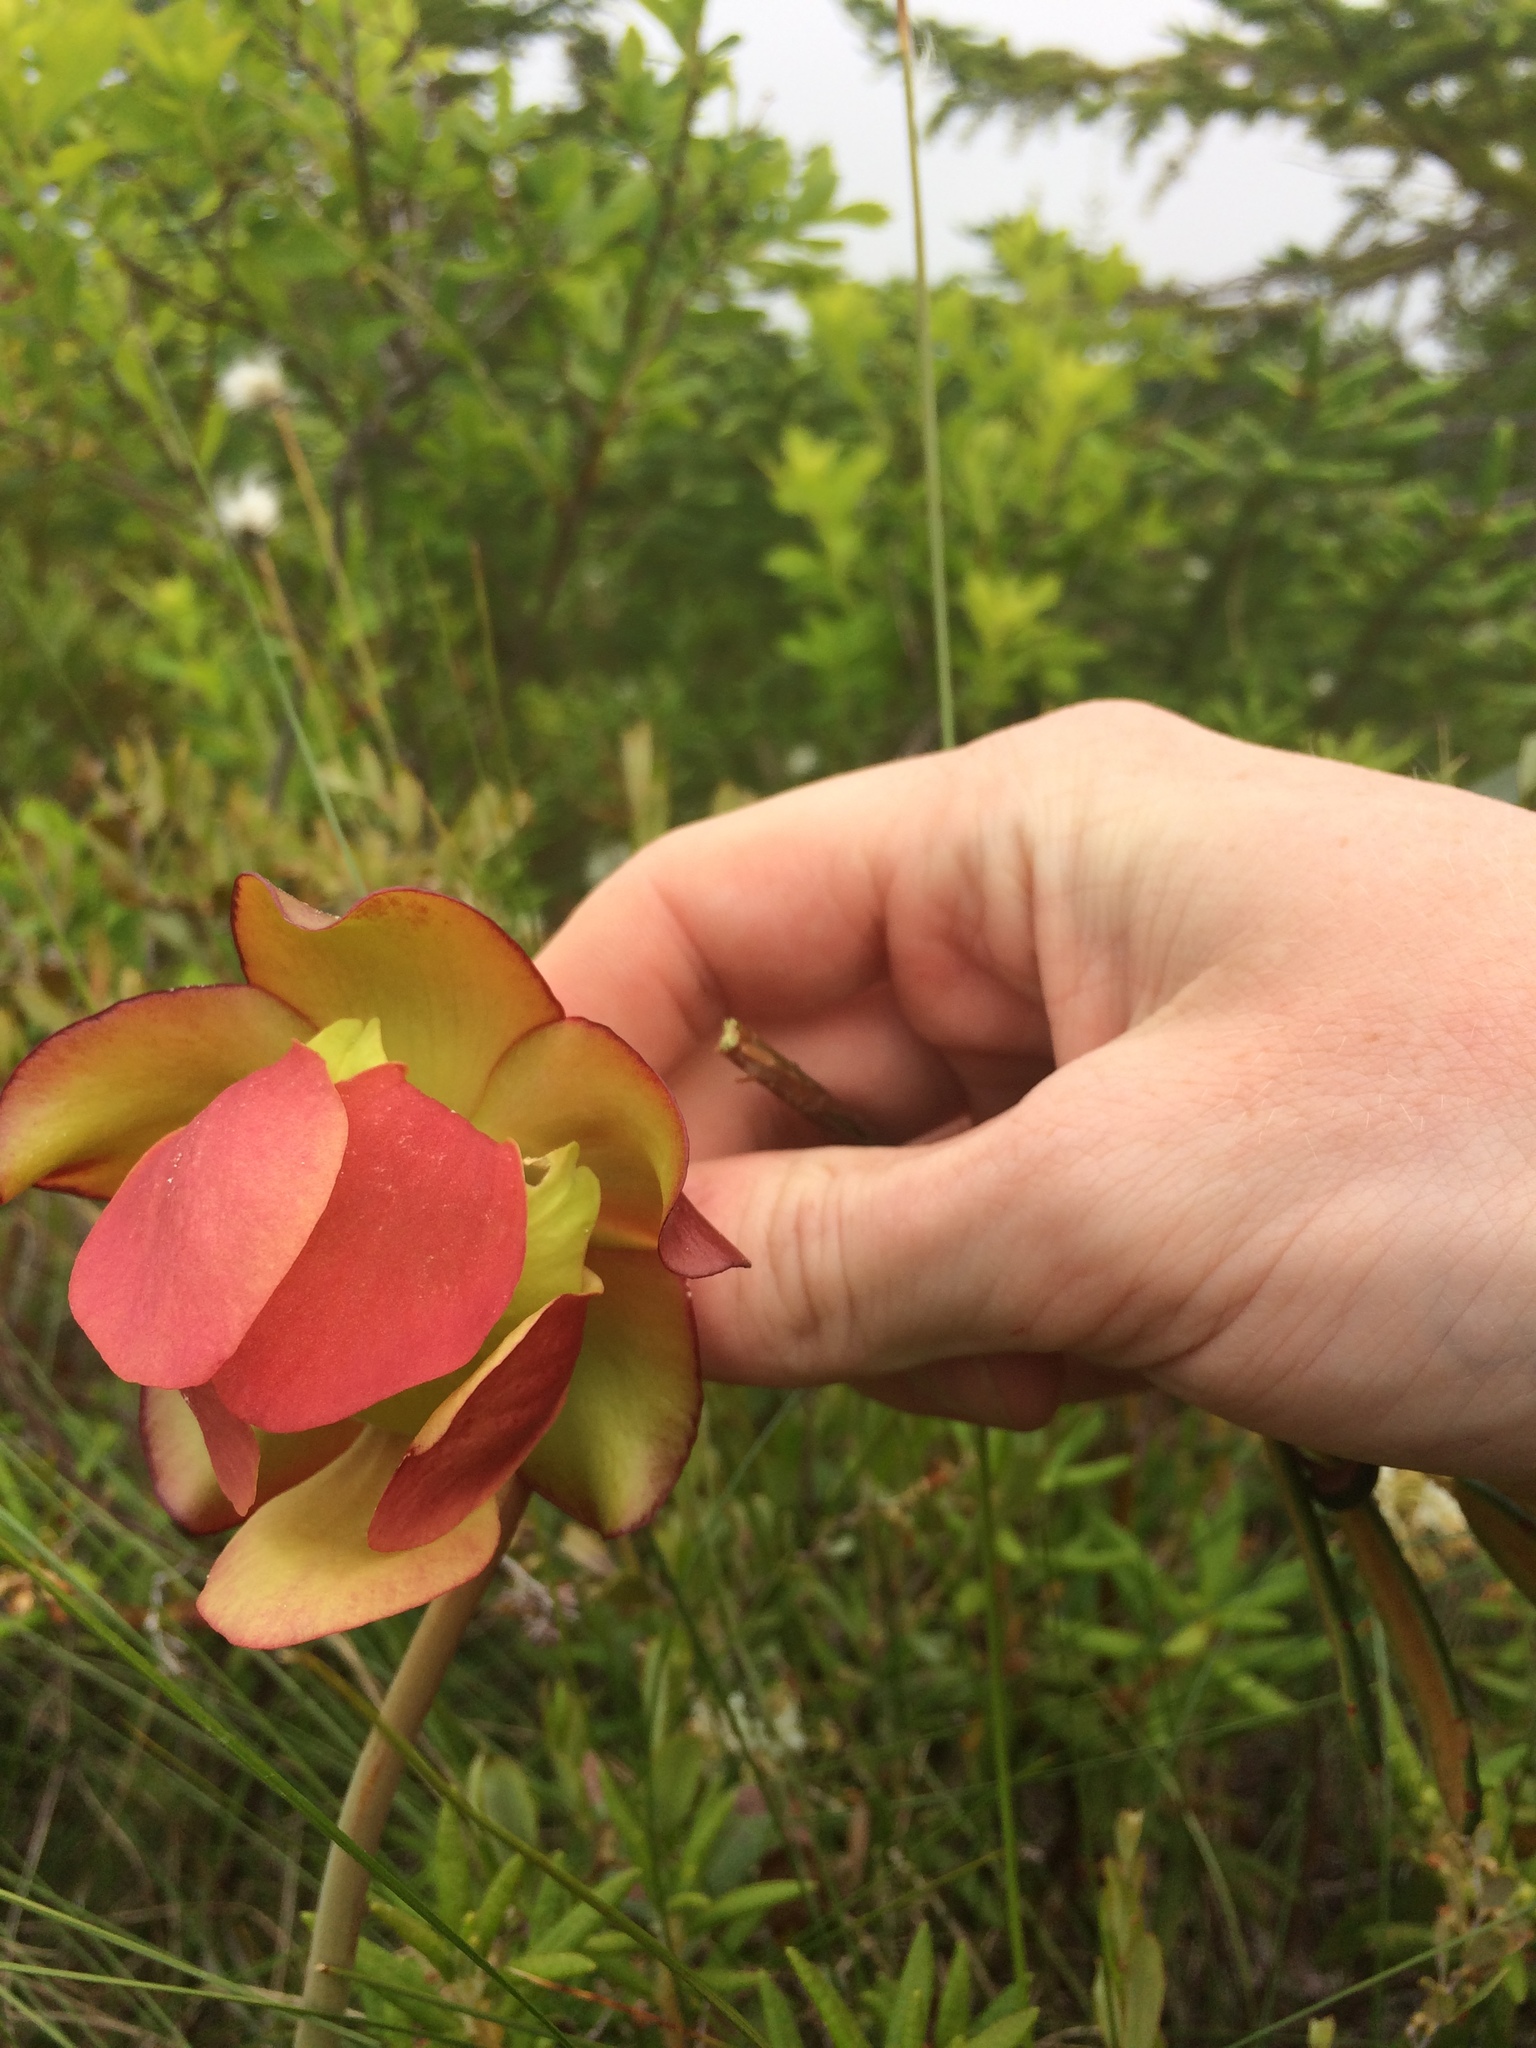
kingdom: Plantae
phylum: Tracheophyta
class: Magnoliopsida
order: Ericales
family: Sarraceniaceae
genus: Sarracenia
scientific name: Sarracenia purpurea
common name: Pitcherplant
